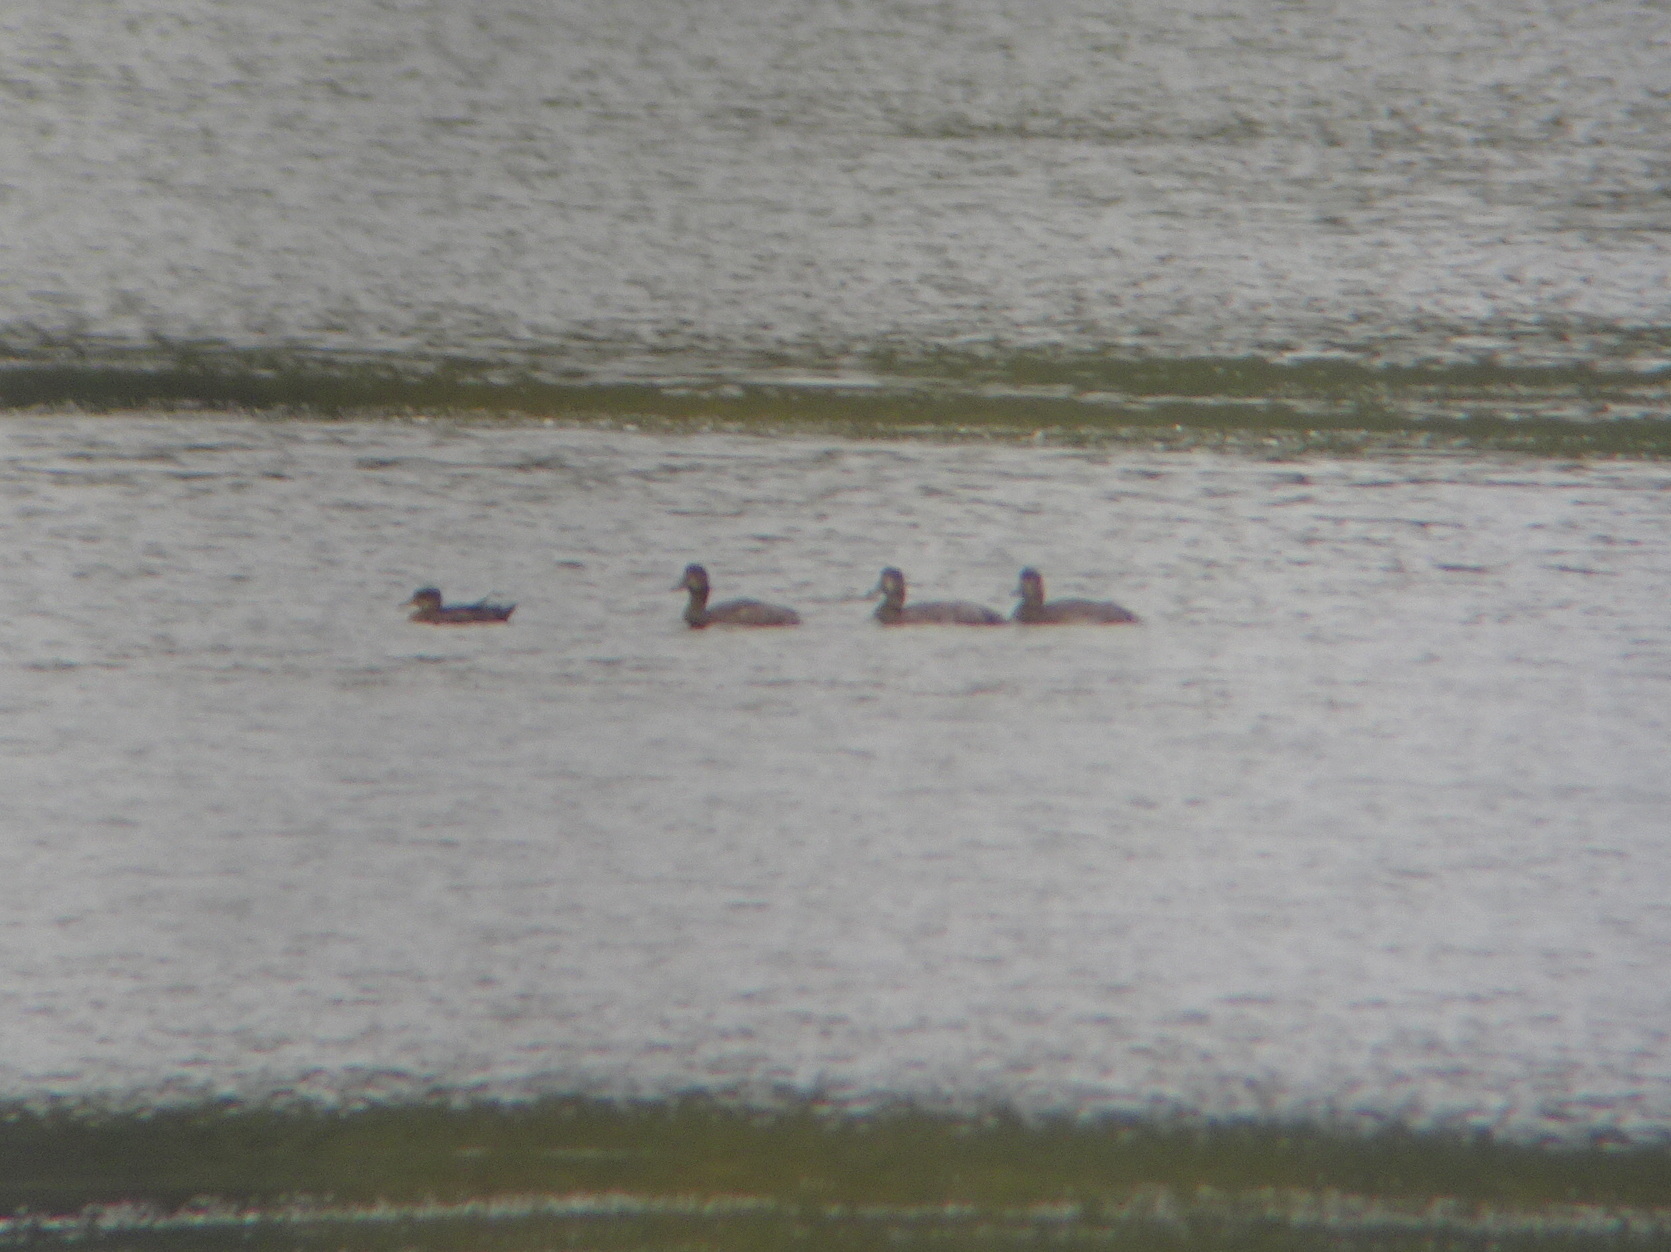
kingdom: Animalia
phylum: Chordata
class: Aves
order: Anseriformes
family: Anatidae
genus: Aythya
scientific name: Aythya americana
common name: Redhead
